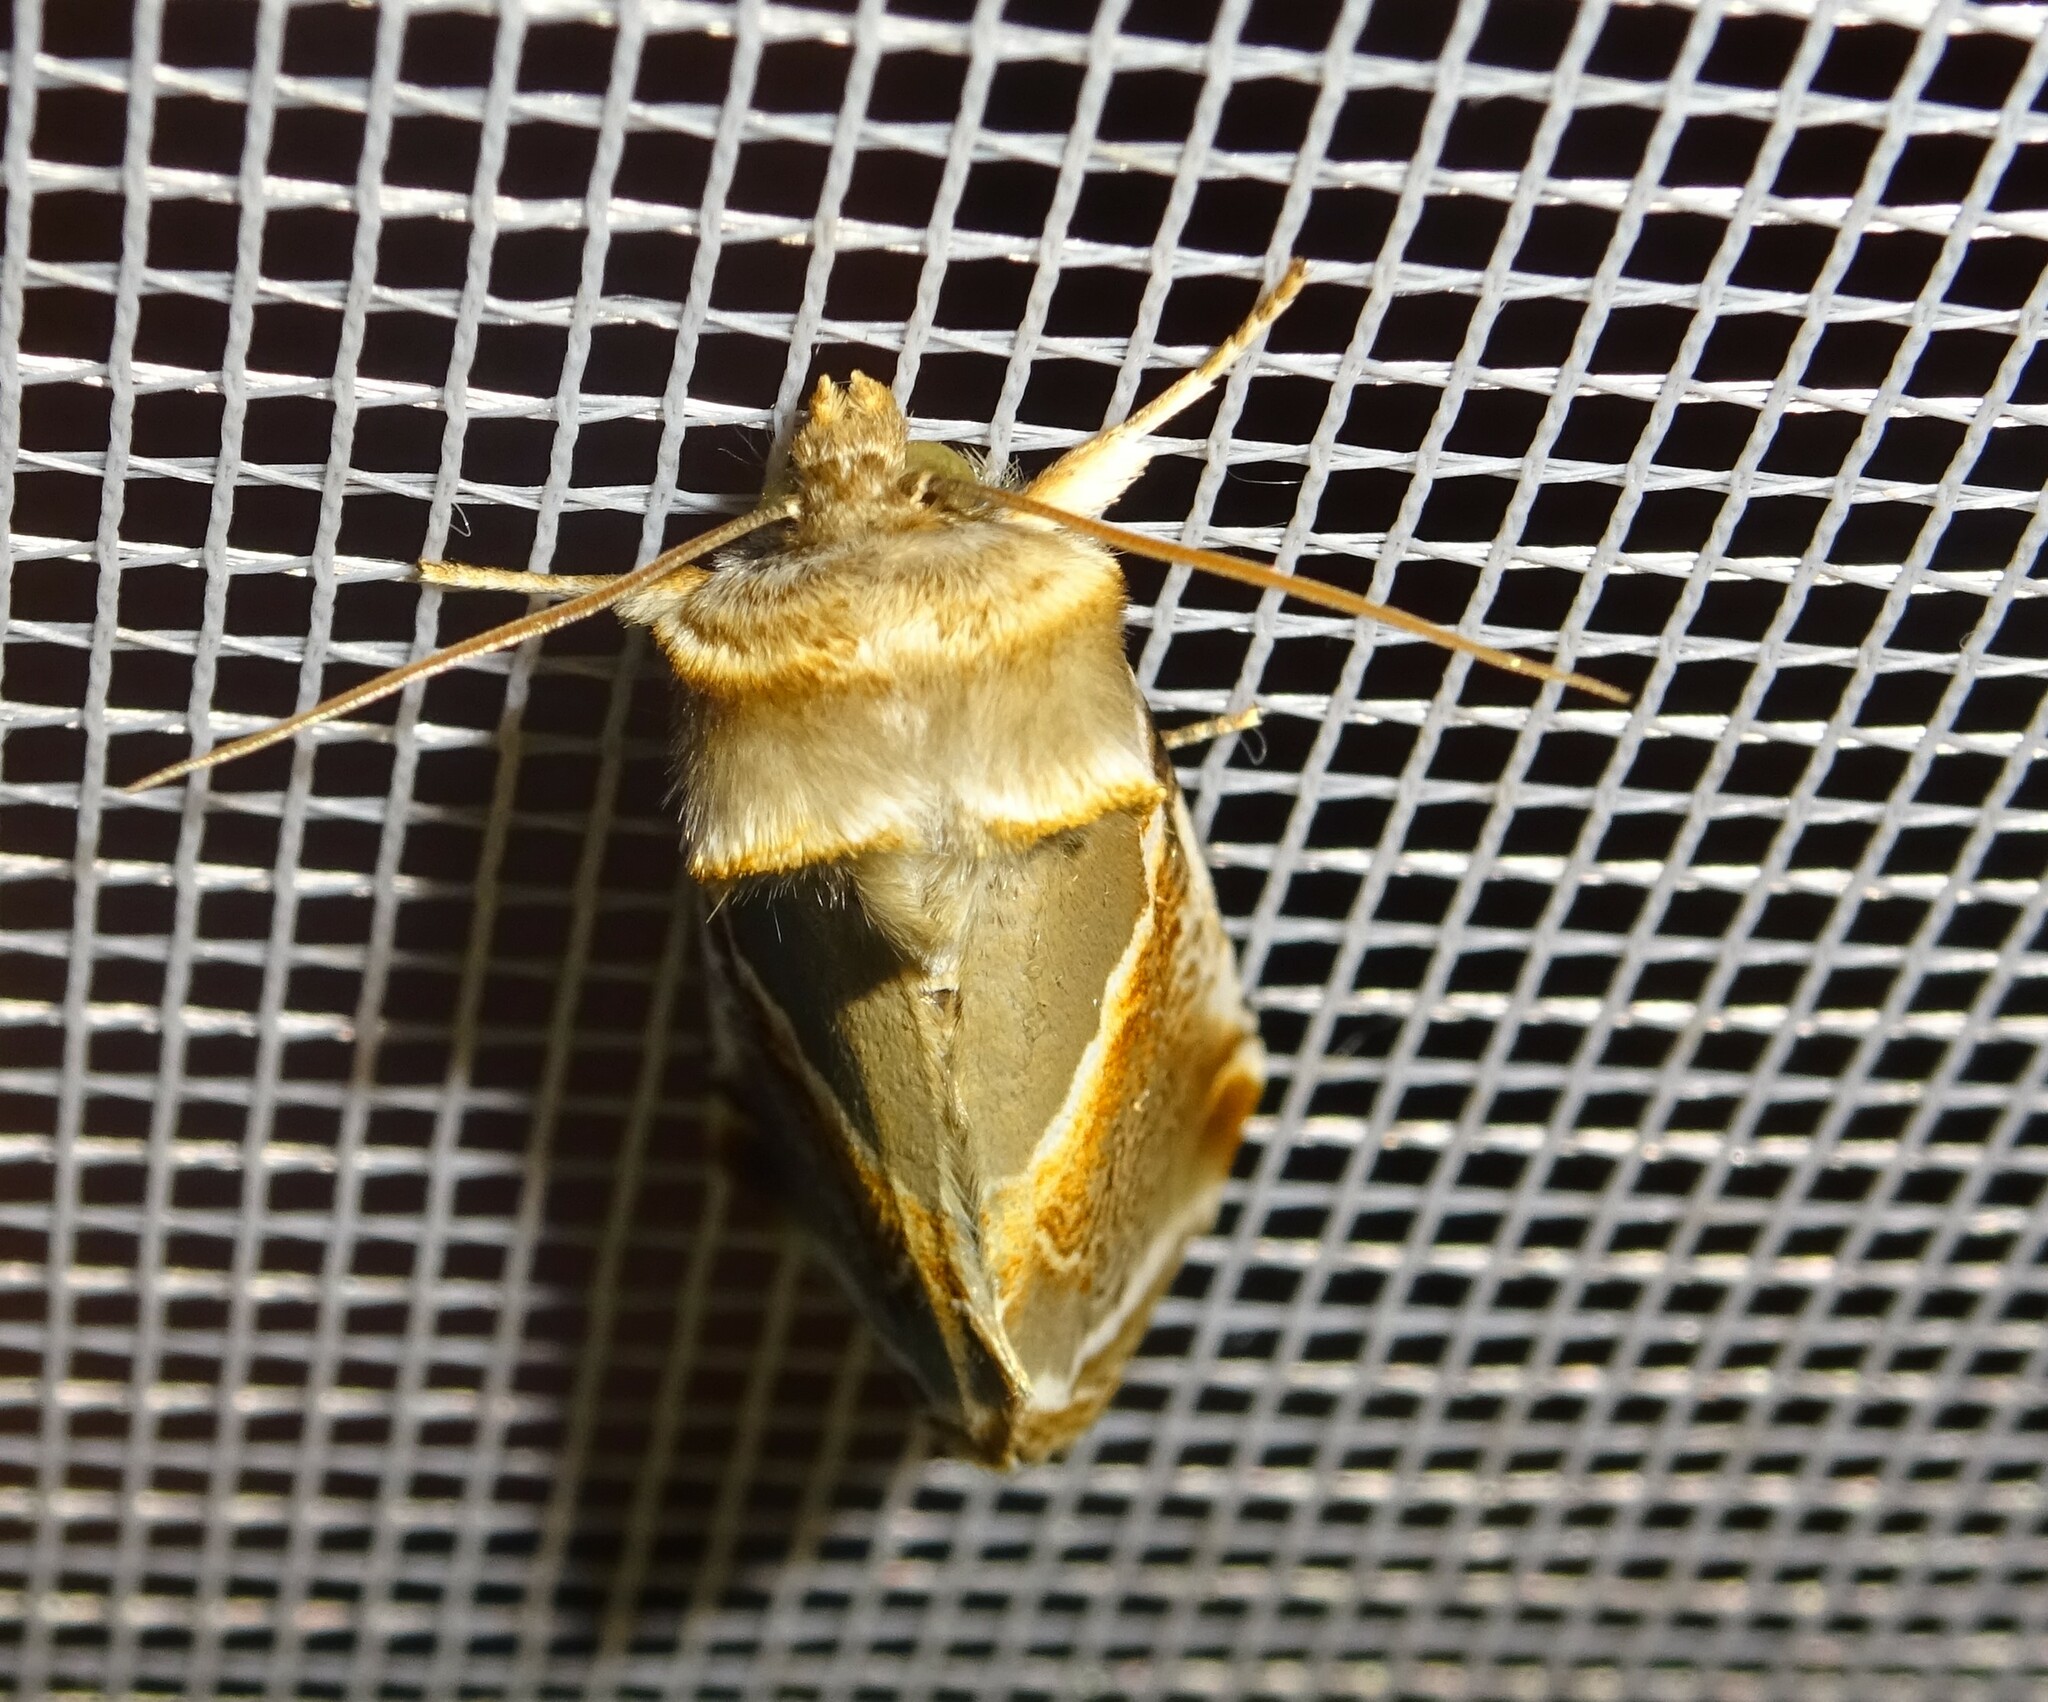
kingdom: Animalia
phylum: Arthropoda
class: Insecta
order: Lepidoptera
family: Drepanidae
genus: Habrosyne
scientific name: Habrosyne pyritoides
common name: Buff arches
